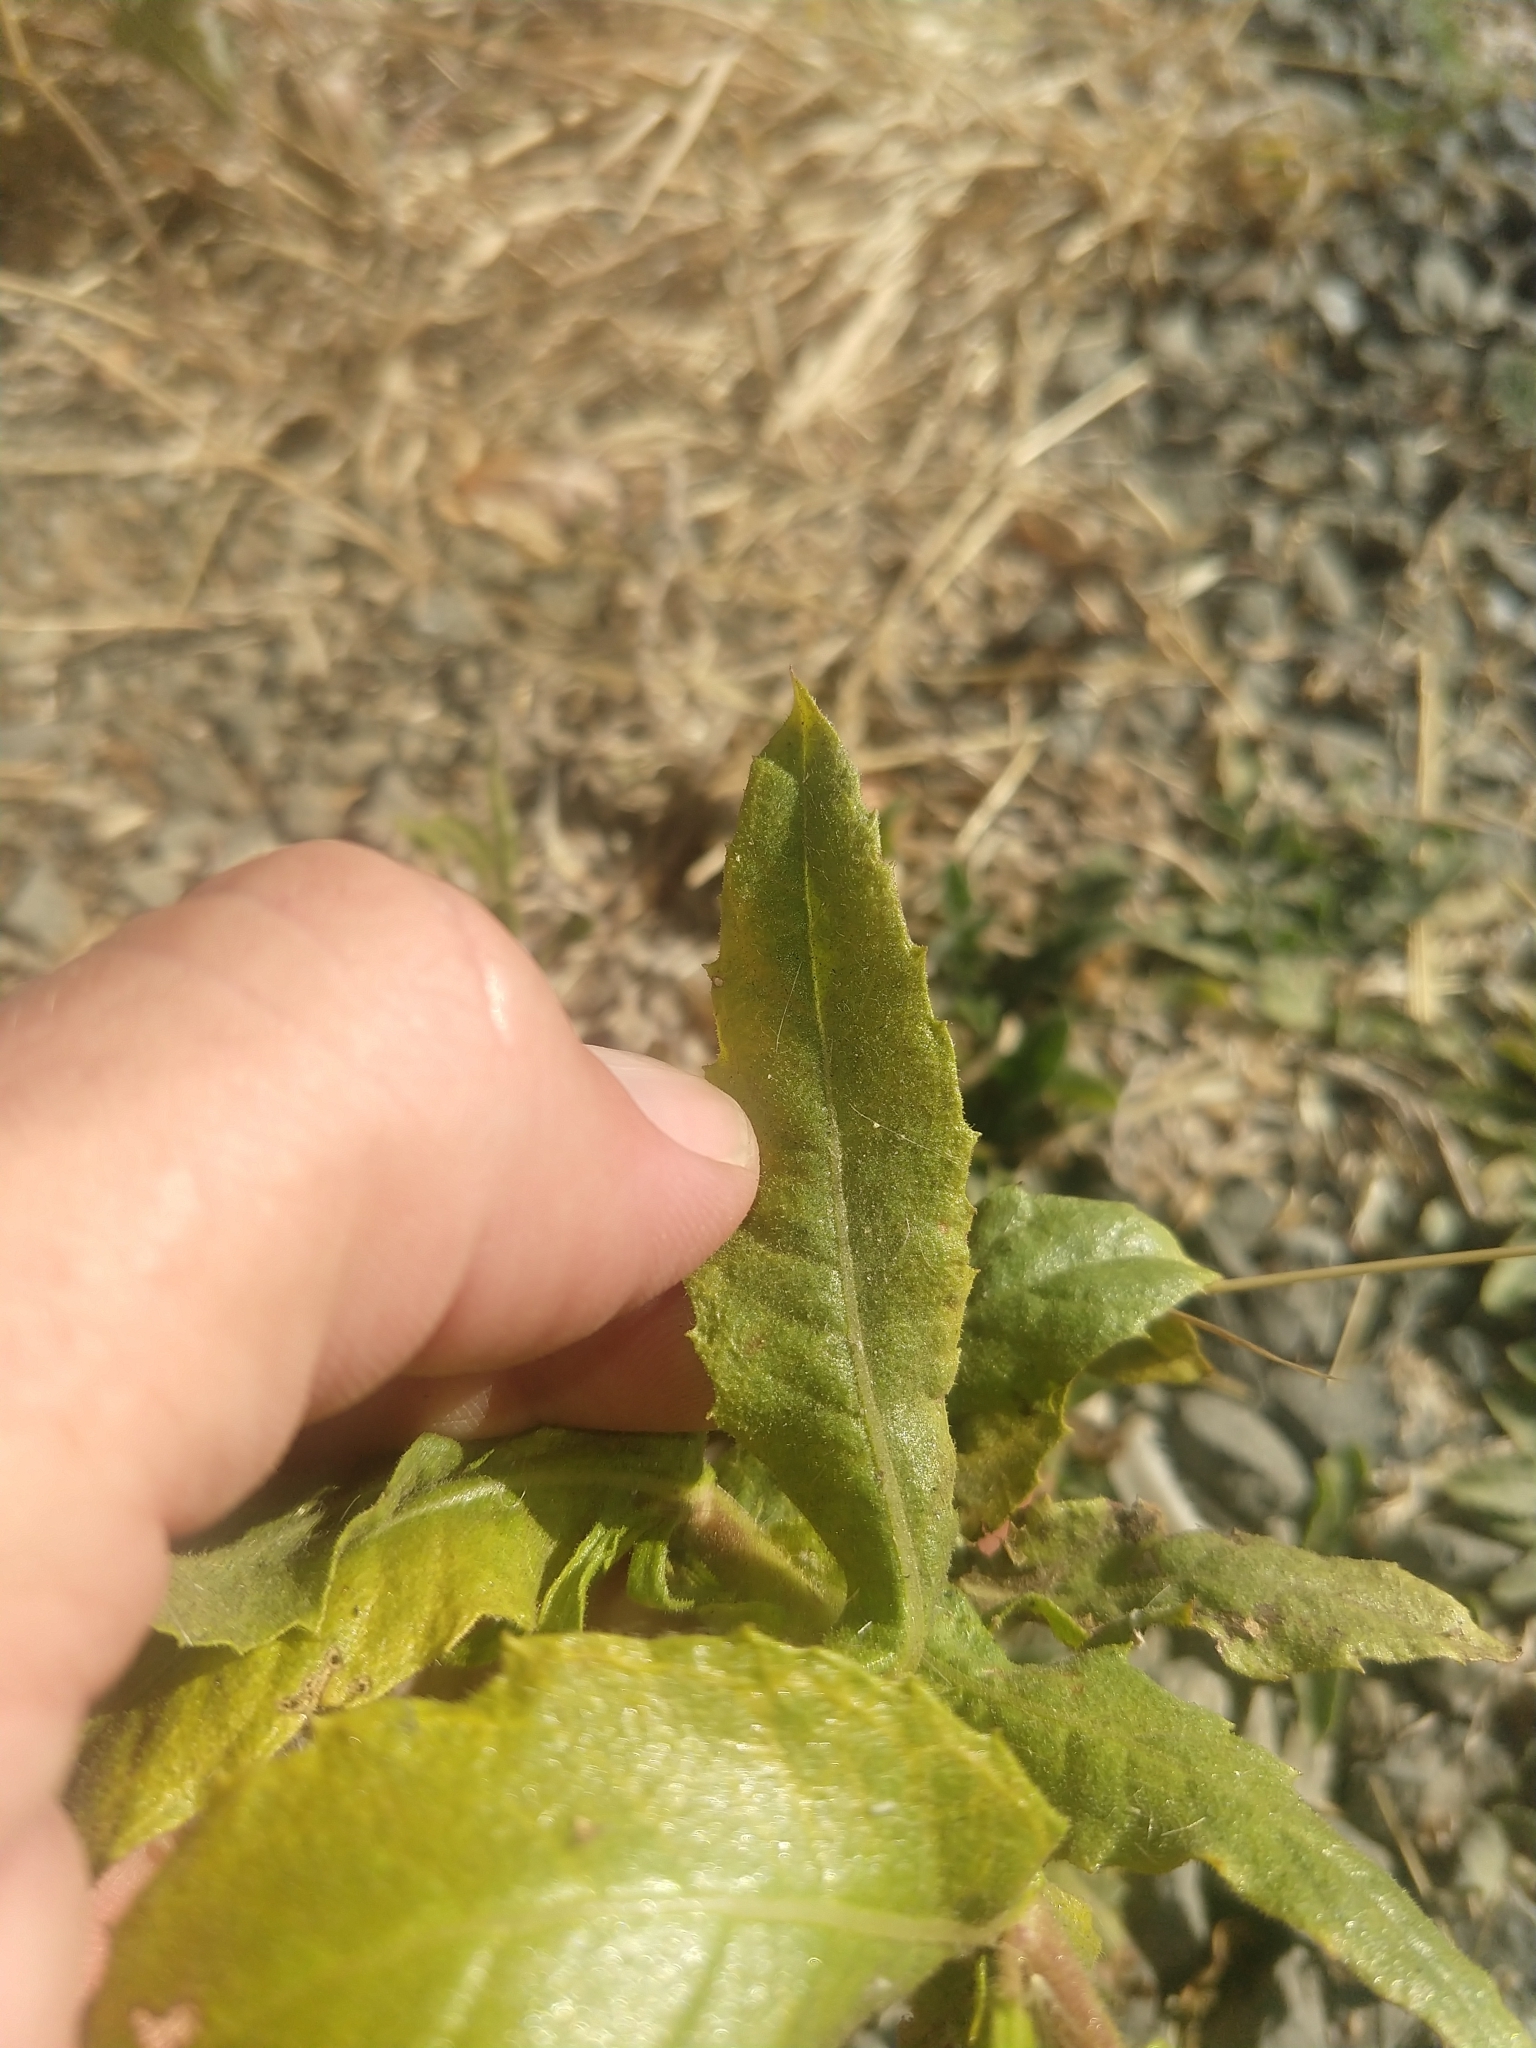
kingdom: Plantae
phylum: Tracheophyta
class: Magnoliopsida
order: Asterales
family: Asteraceae
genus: Dittrichia
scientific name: Dittrichia viscosa
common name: Woody fleabane
